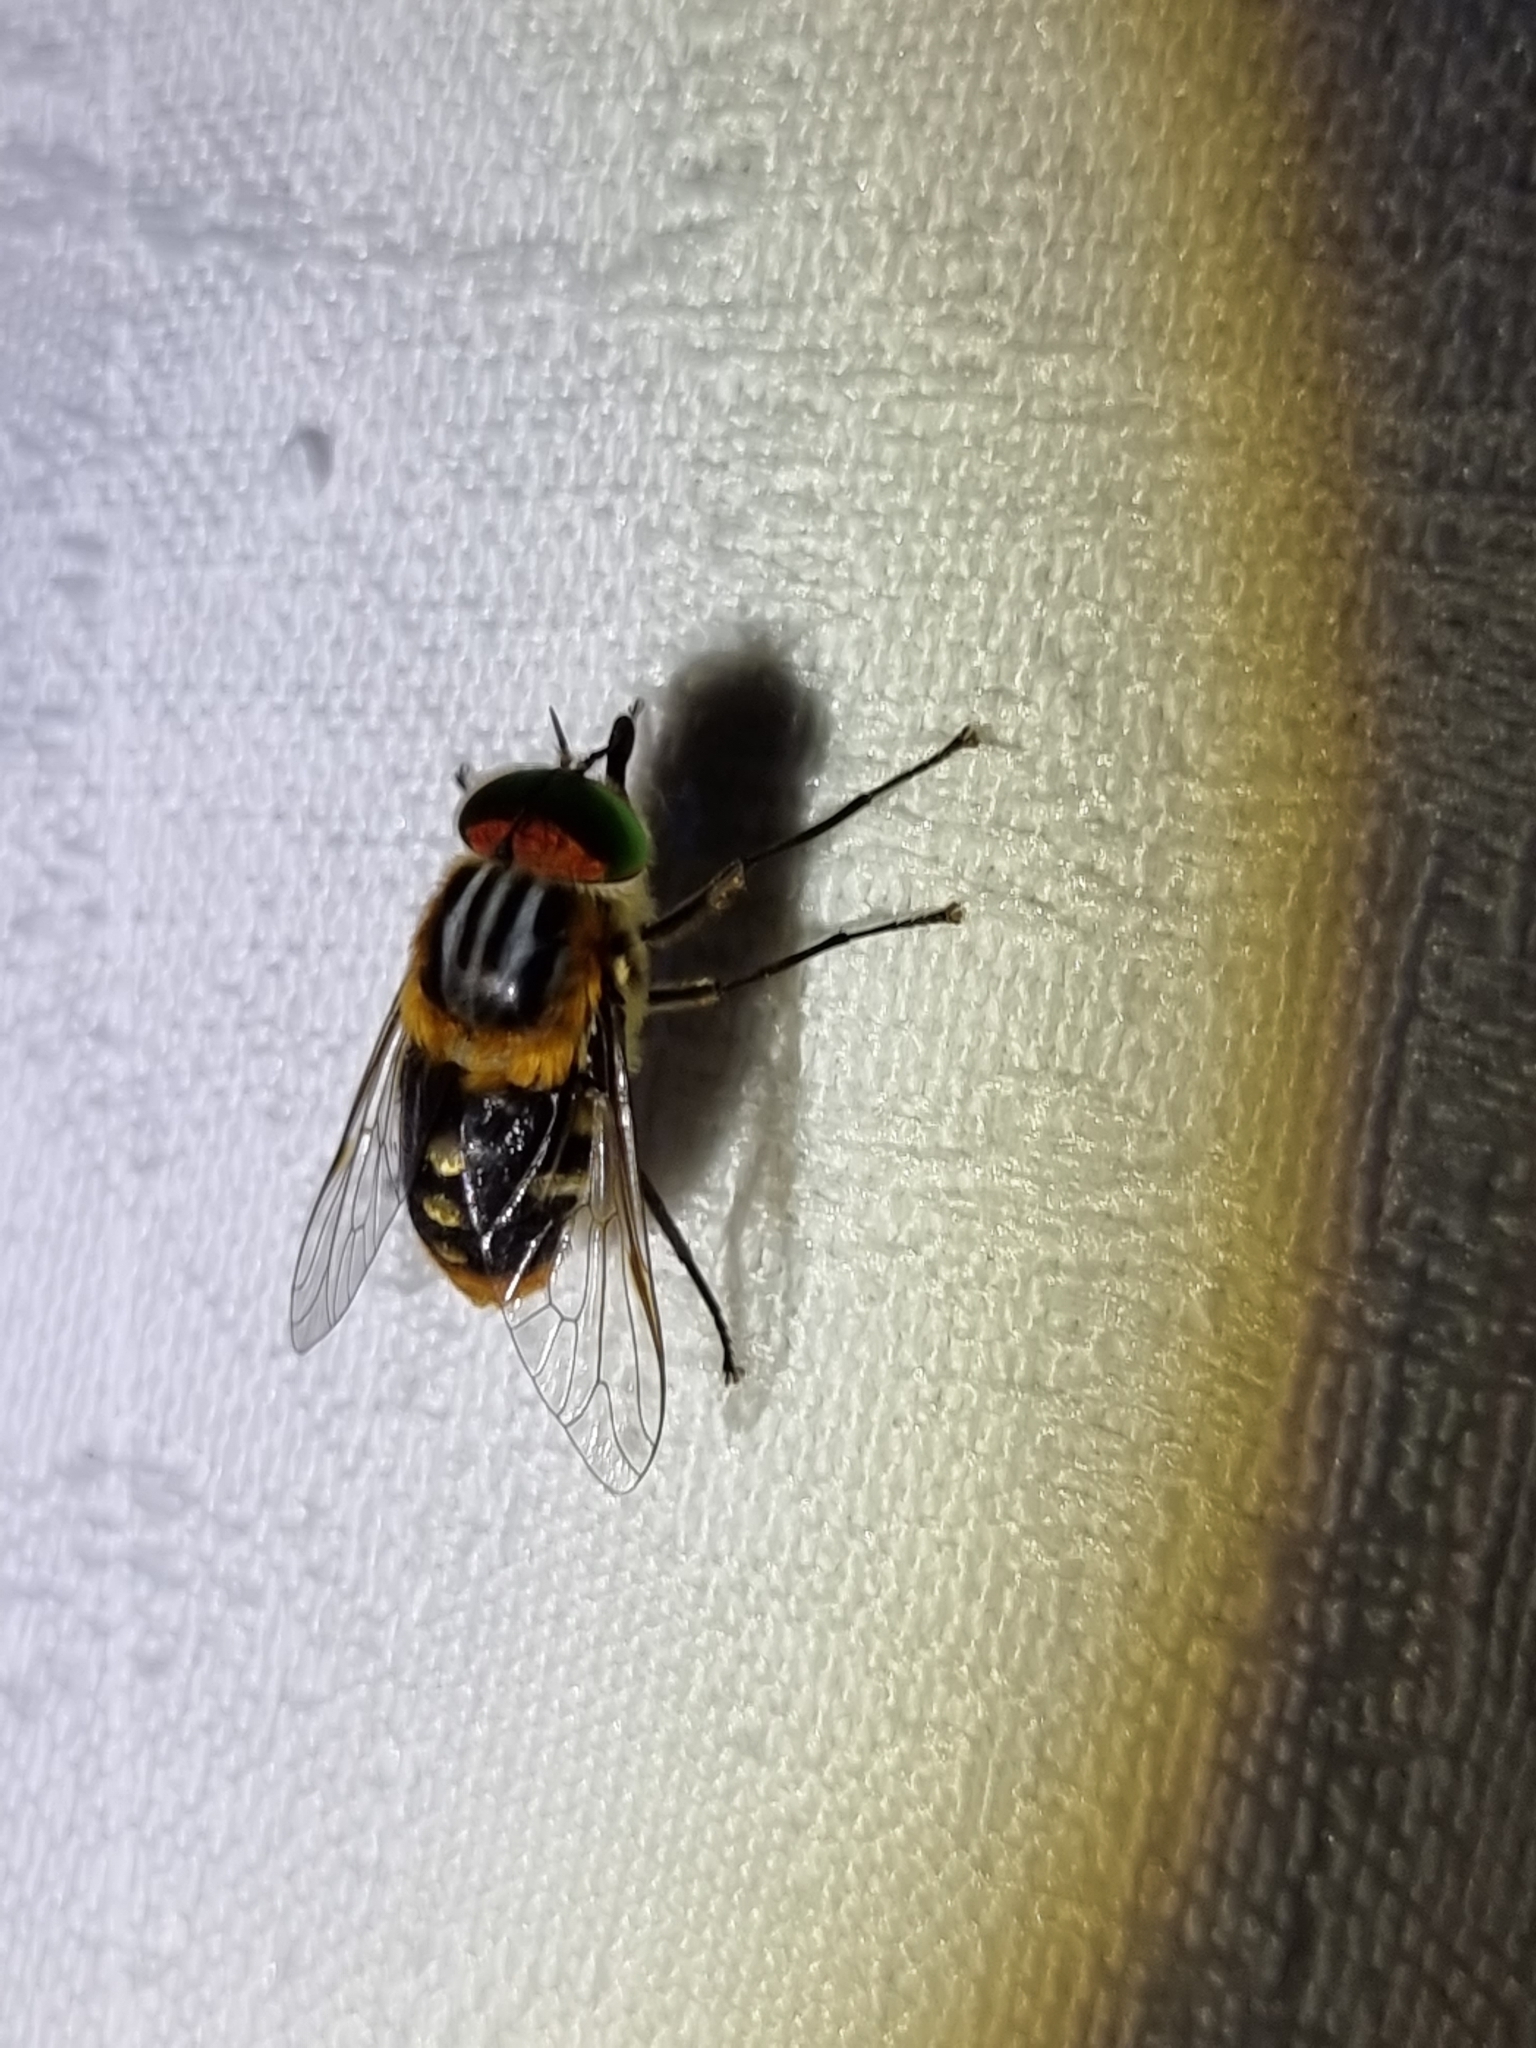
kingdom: Animalia
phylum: Arthropoda
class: Insecta
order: Diptera
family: Tabanidae
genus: Scaptia
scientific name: Scaptia auriflua
